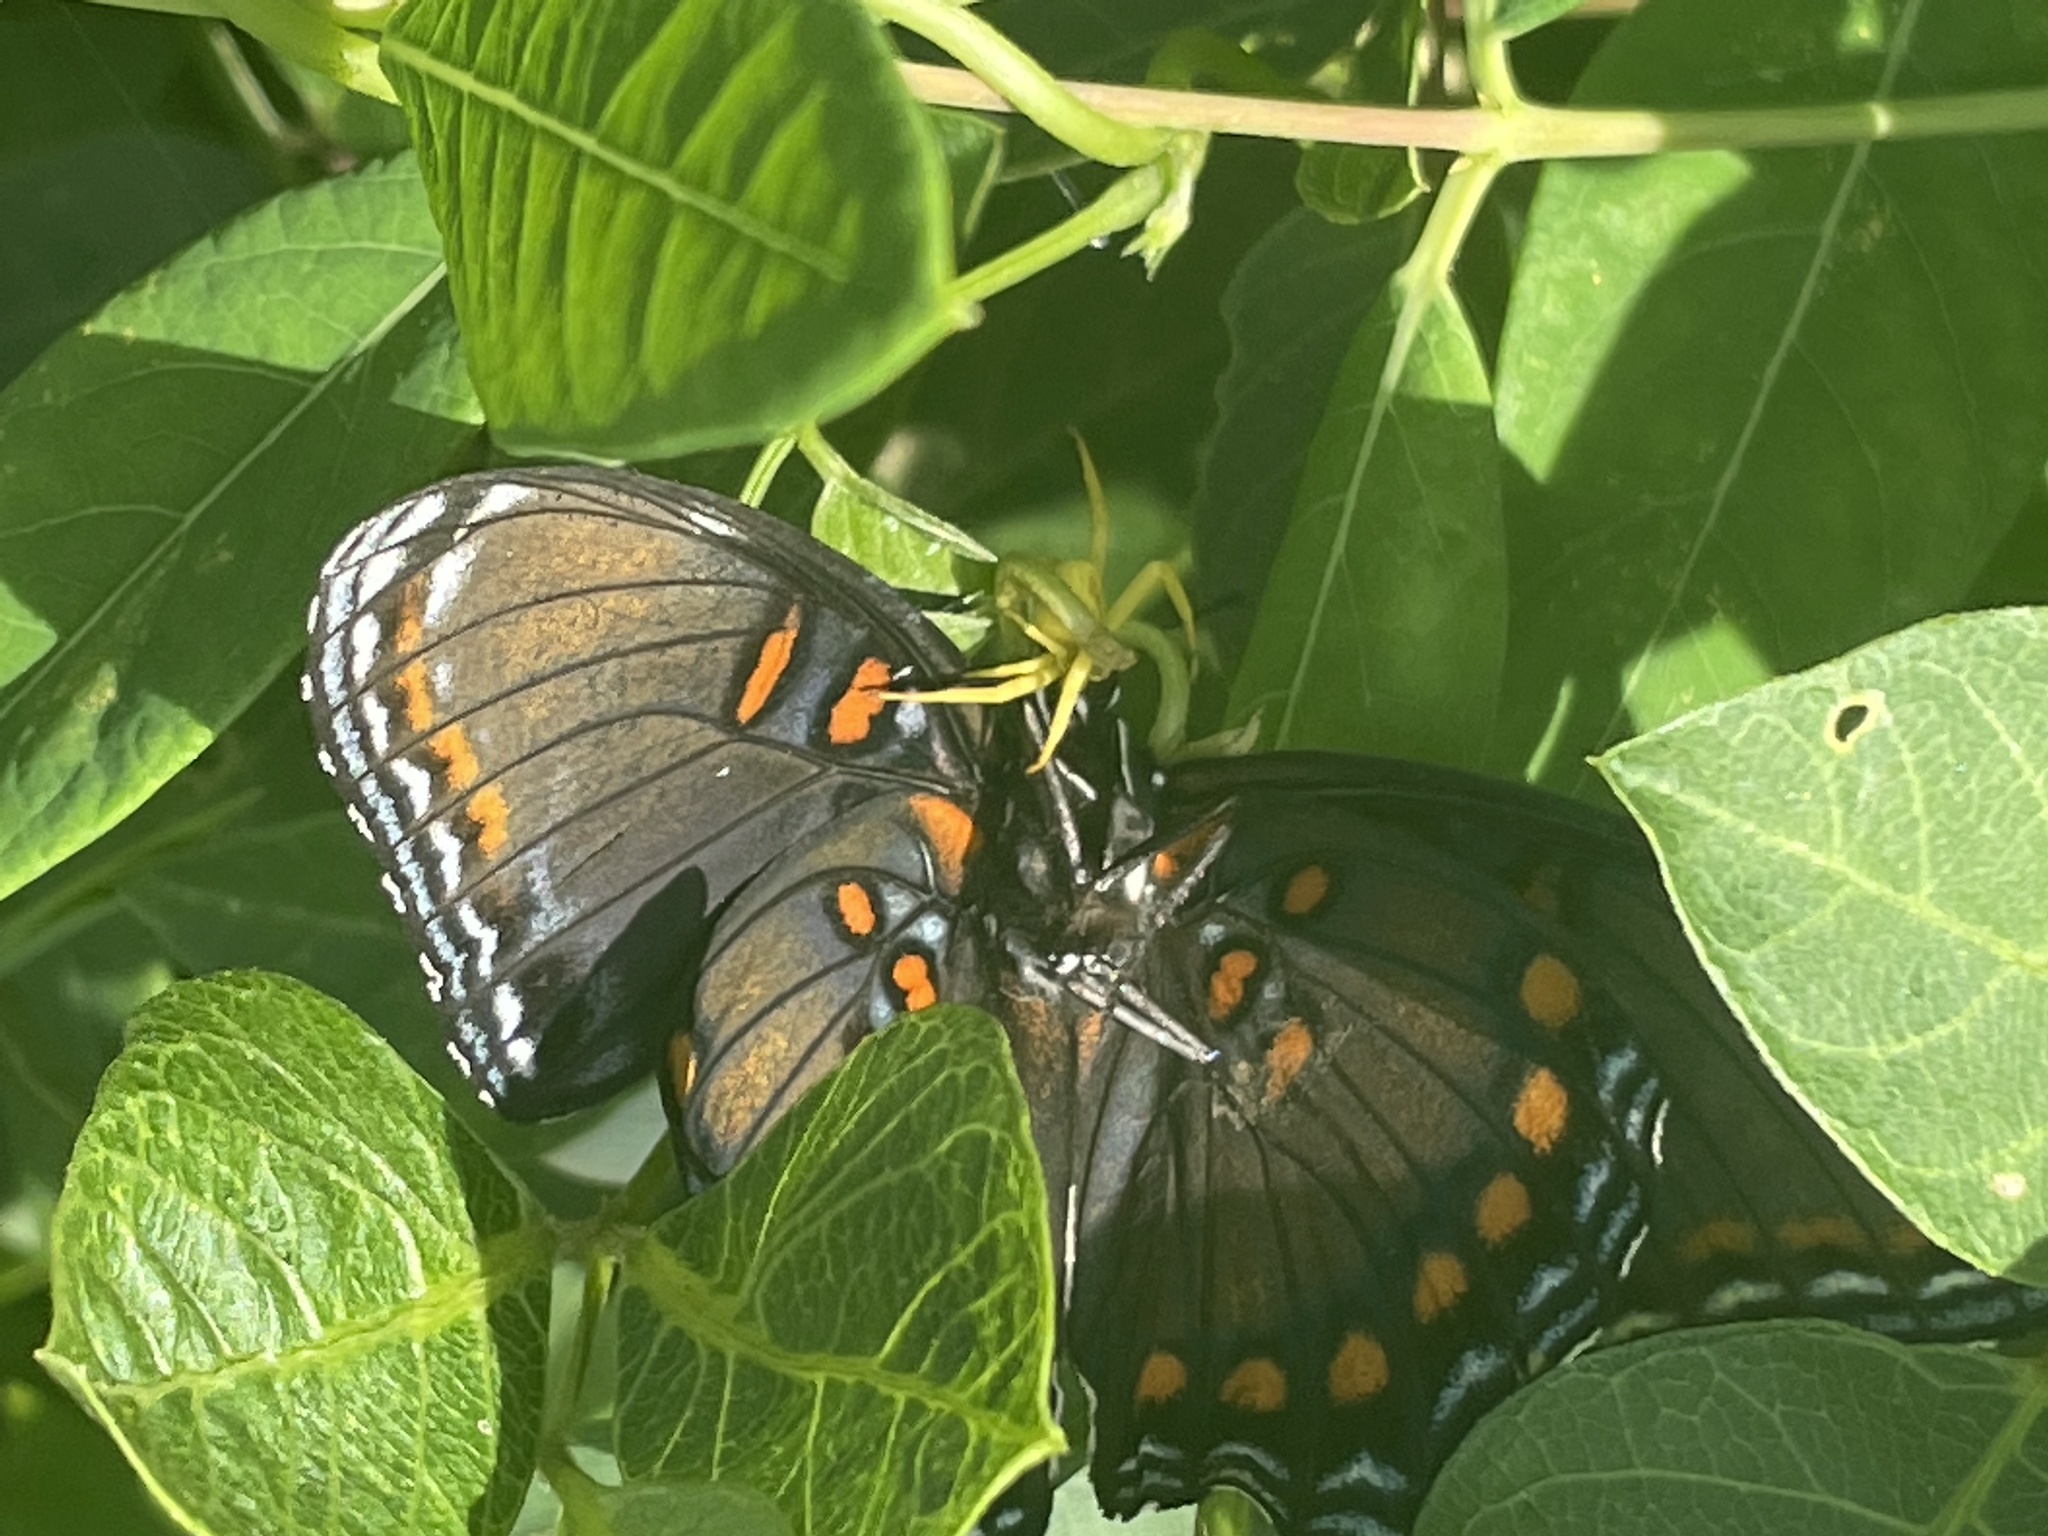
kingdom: Animalia
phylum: Arthropoda
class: Insecta
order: Lepidoptera
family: Nymphalidae
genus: Limenitis
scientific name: Limenitis arthemis
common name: Red-spotted admiral
